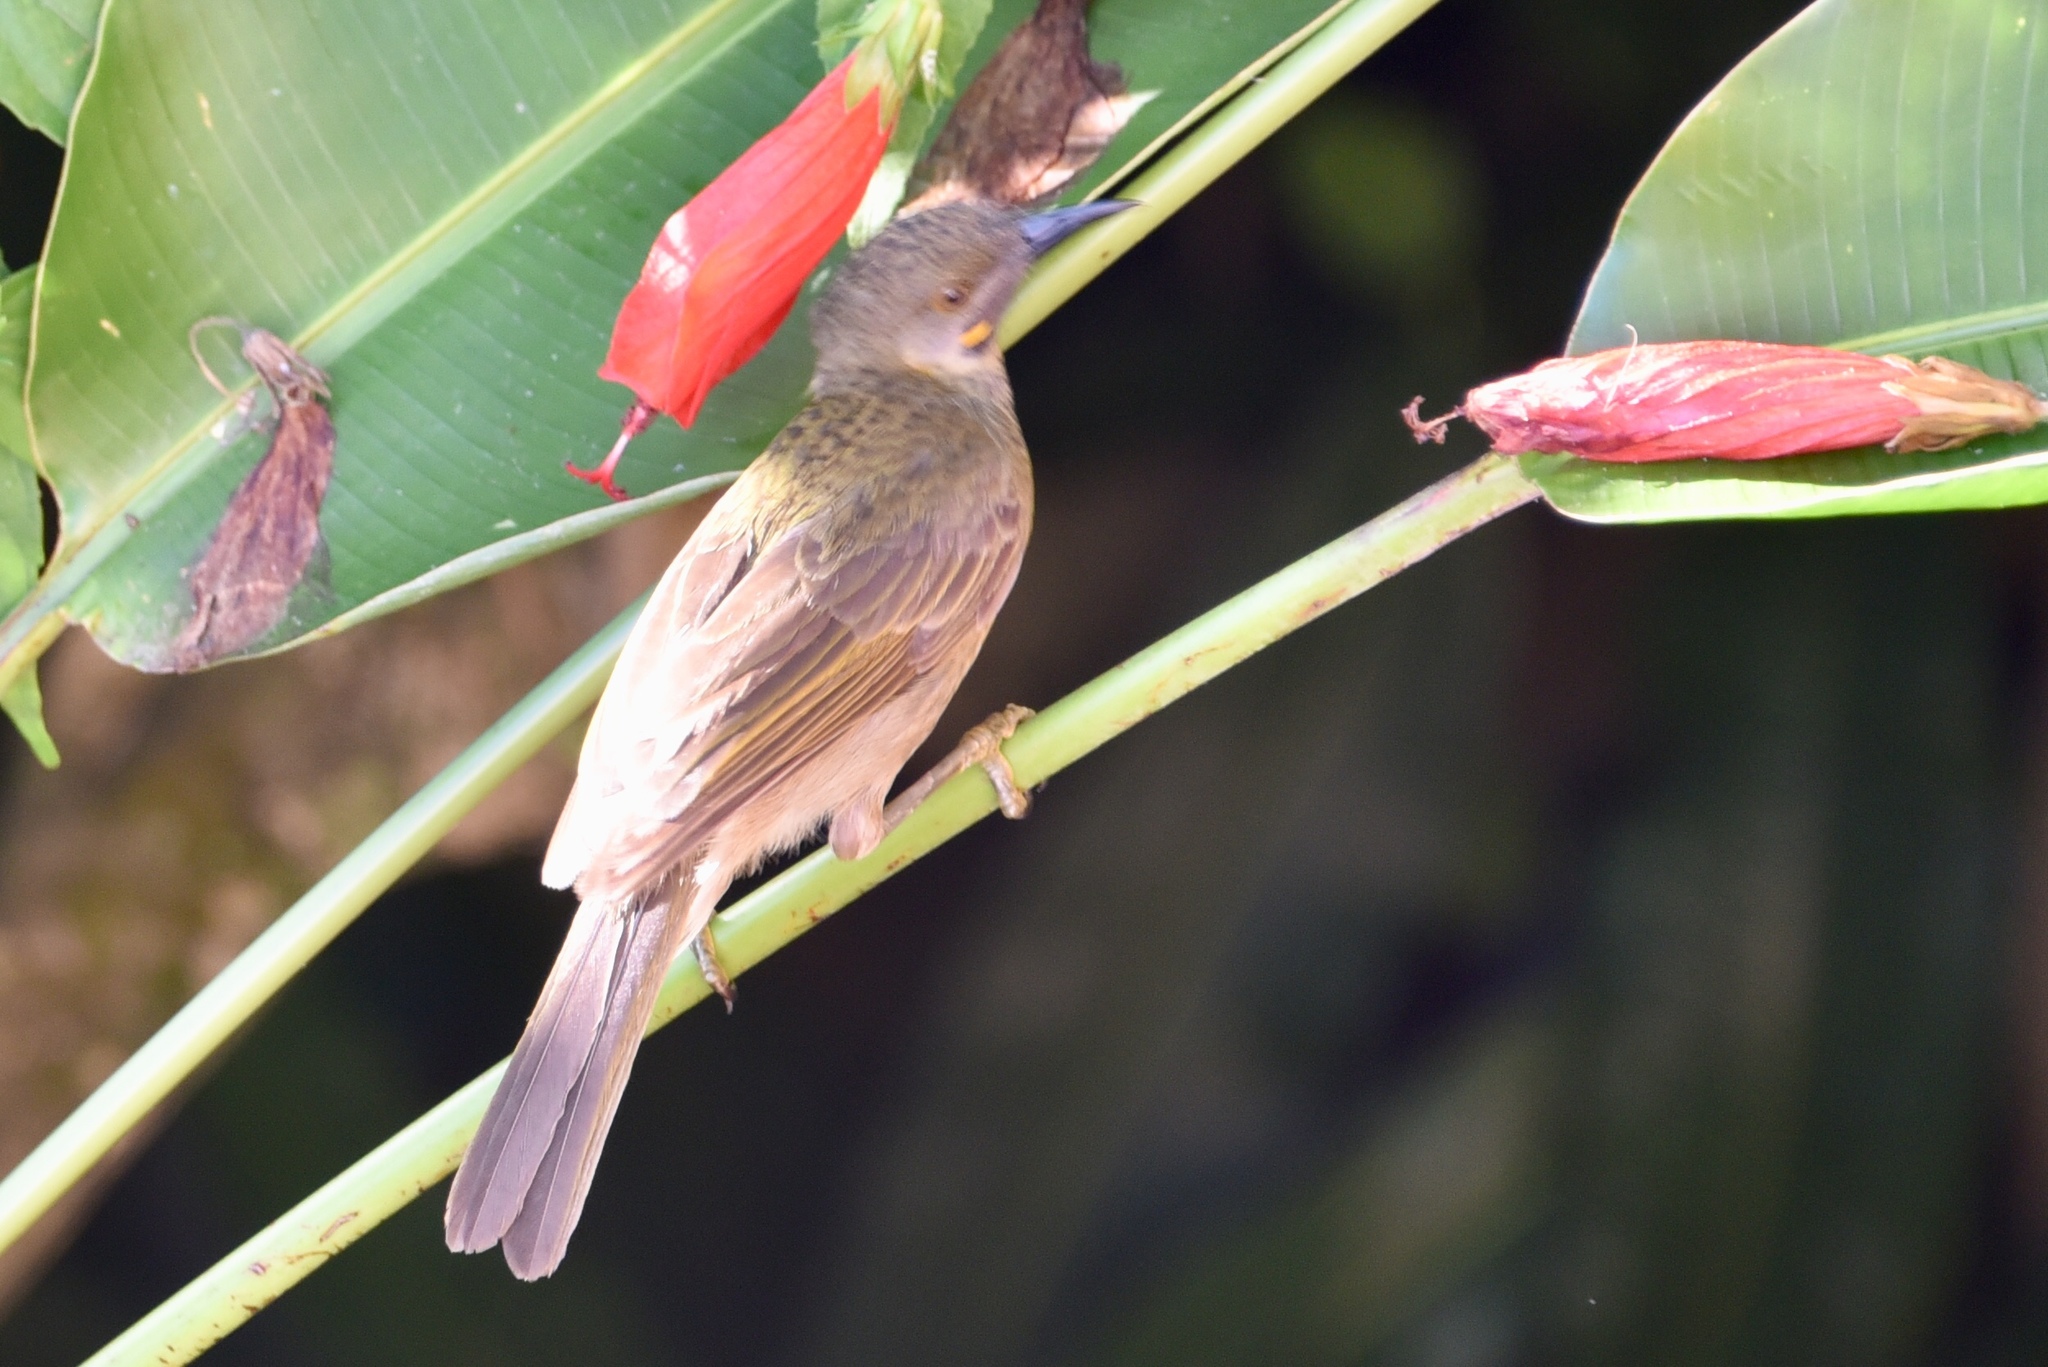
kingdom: Animalia
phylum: Chordata
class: Aves
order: Passeriformes
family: Meliphagidae
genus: Foulehaio
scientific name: Foulehaio procerior
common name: Kikau
